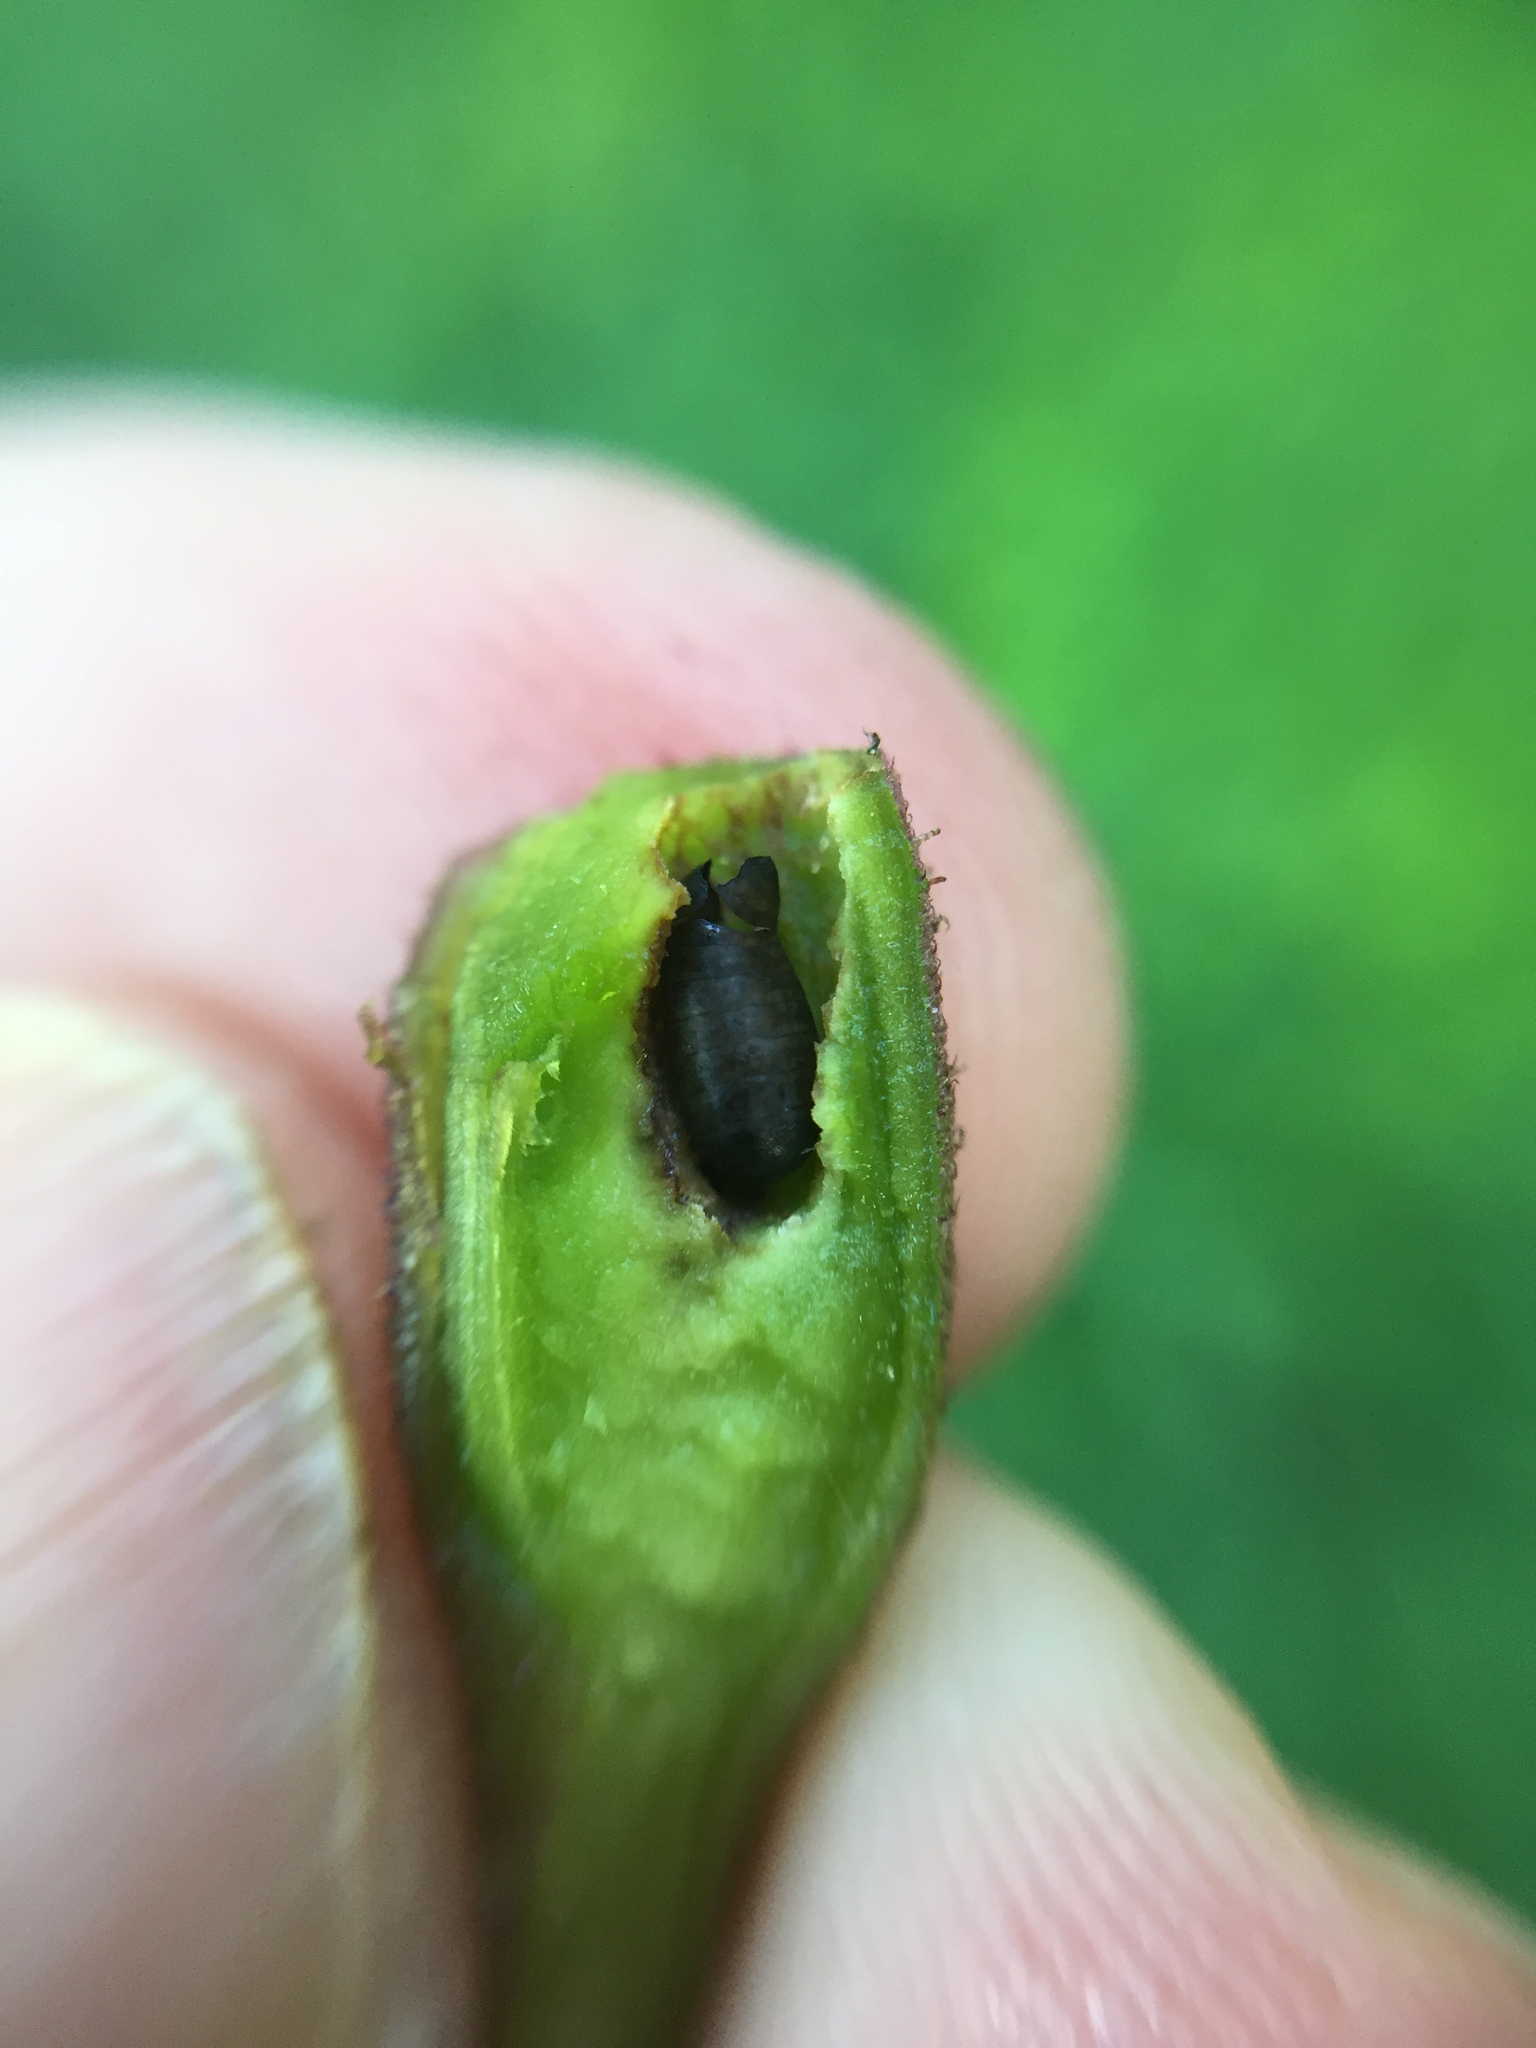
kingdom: Animalia
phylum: Arthropoda
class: Insecta
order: Diptera
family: Tephritidae
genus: Procecidochares
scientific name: Procecidochares alani
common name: Fruit fly
